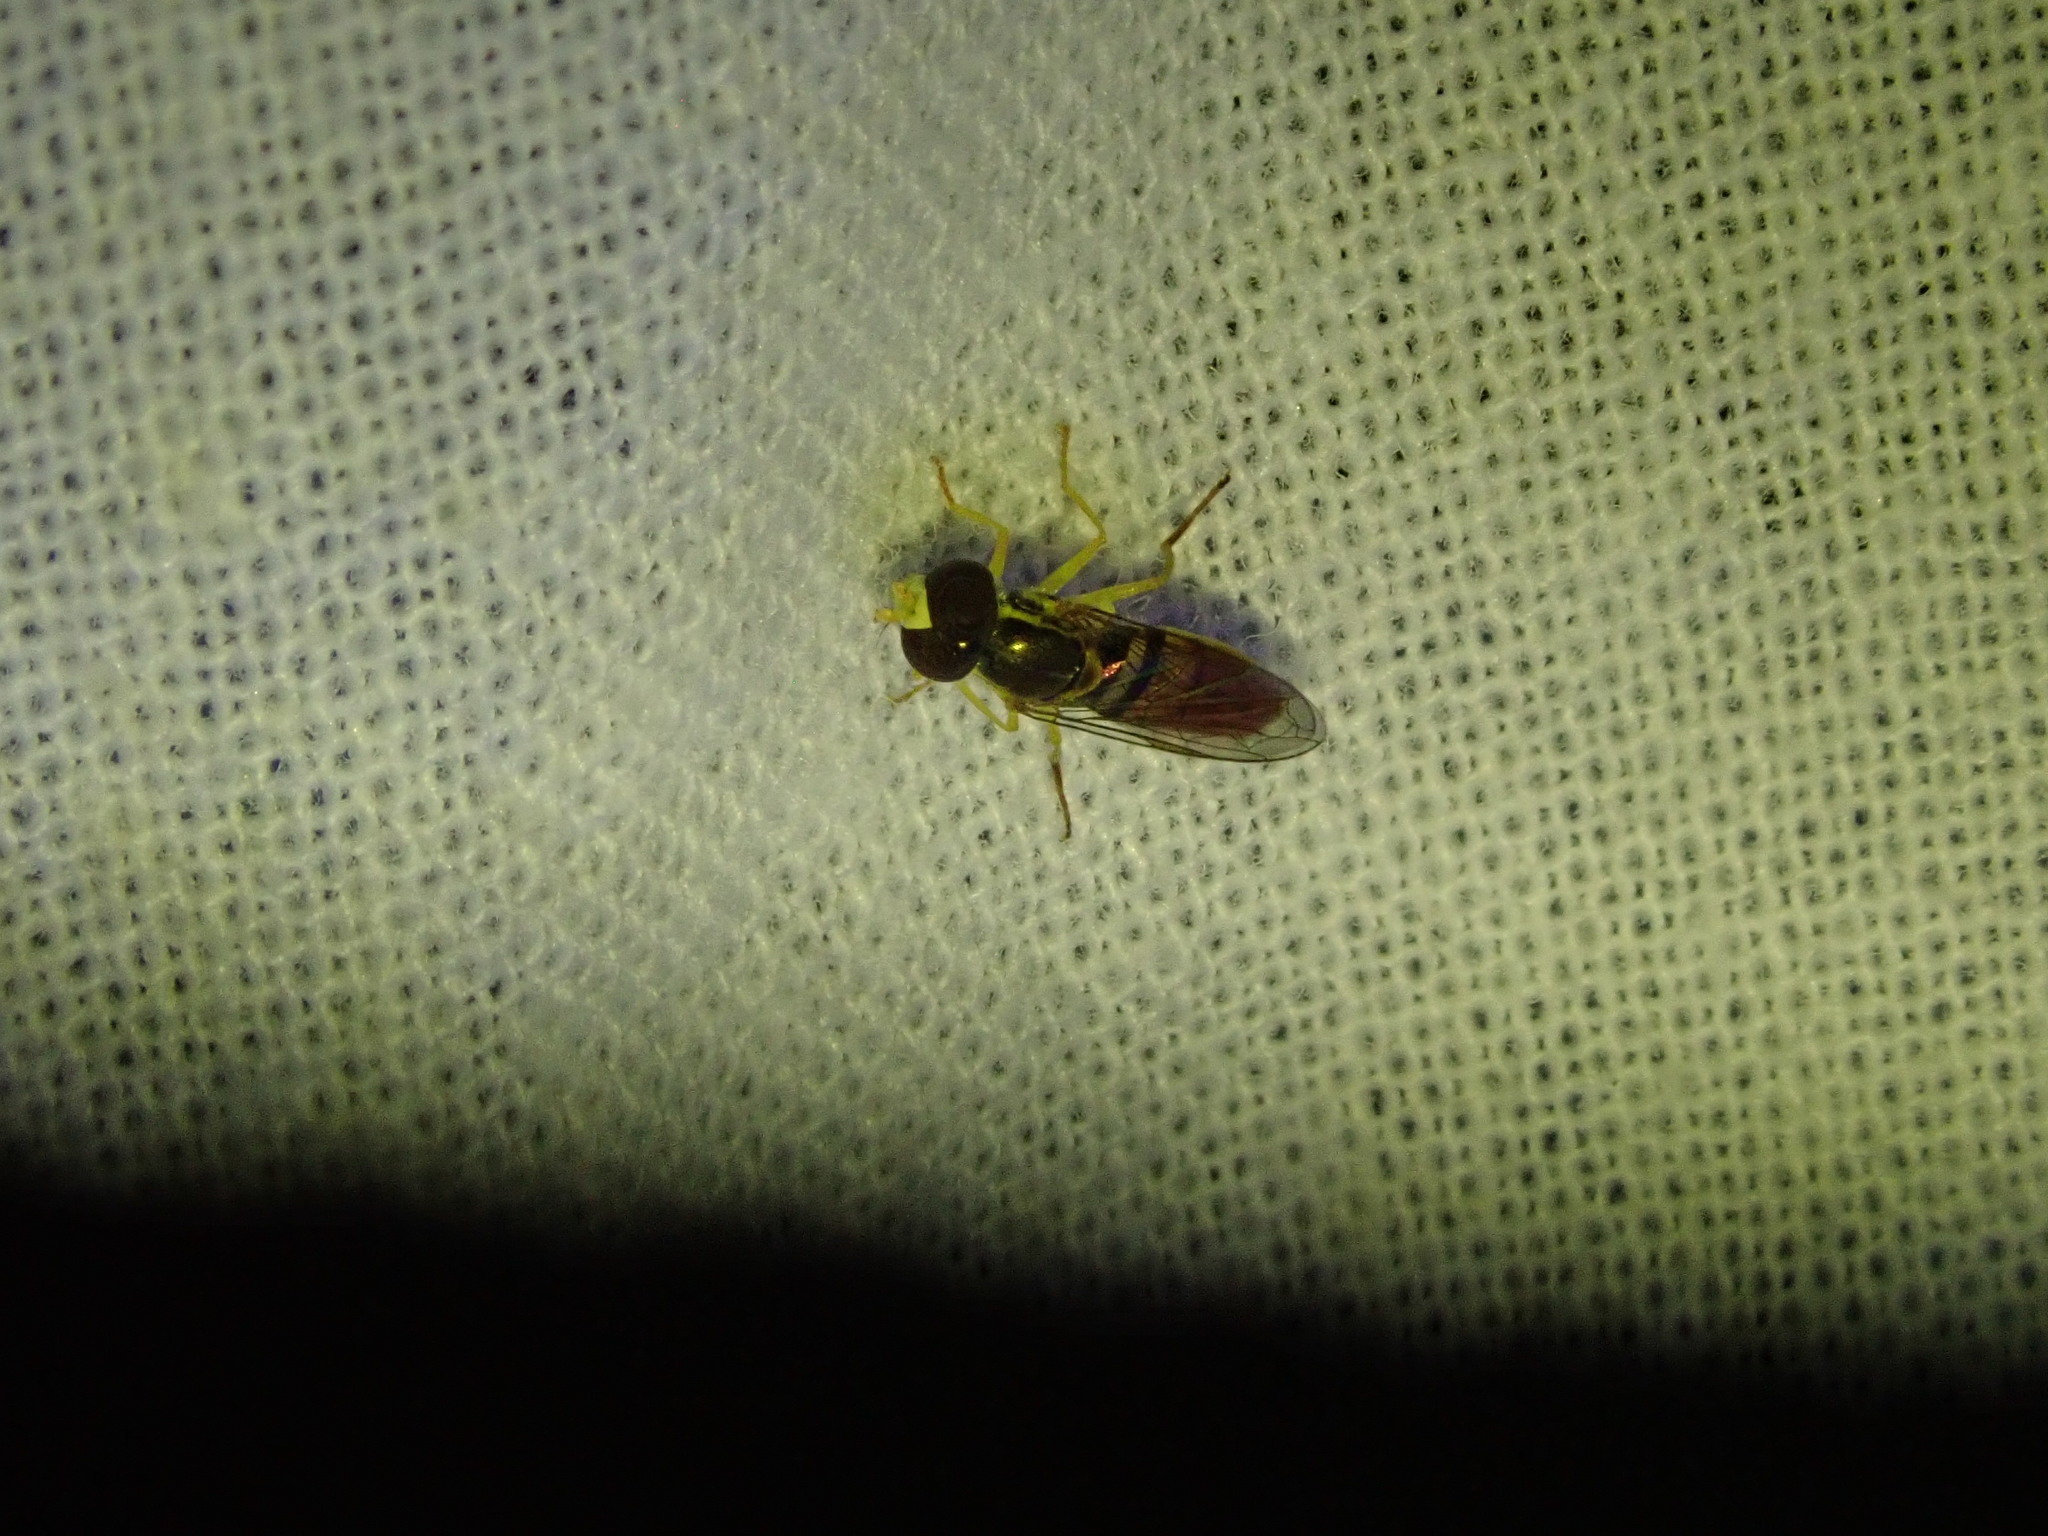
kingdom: Animalia
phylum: Arthropoda
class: Insecta
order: Diptera
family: Syrphidae
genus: Toxomerus
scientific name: Toxomerus marginatus
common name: Syrphid fly
